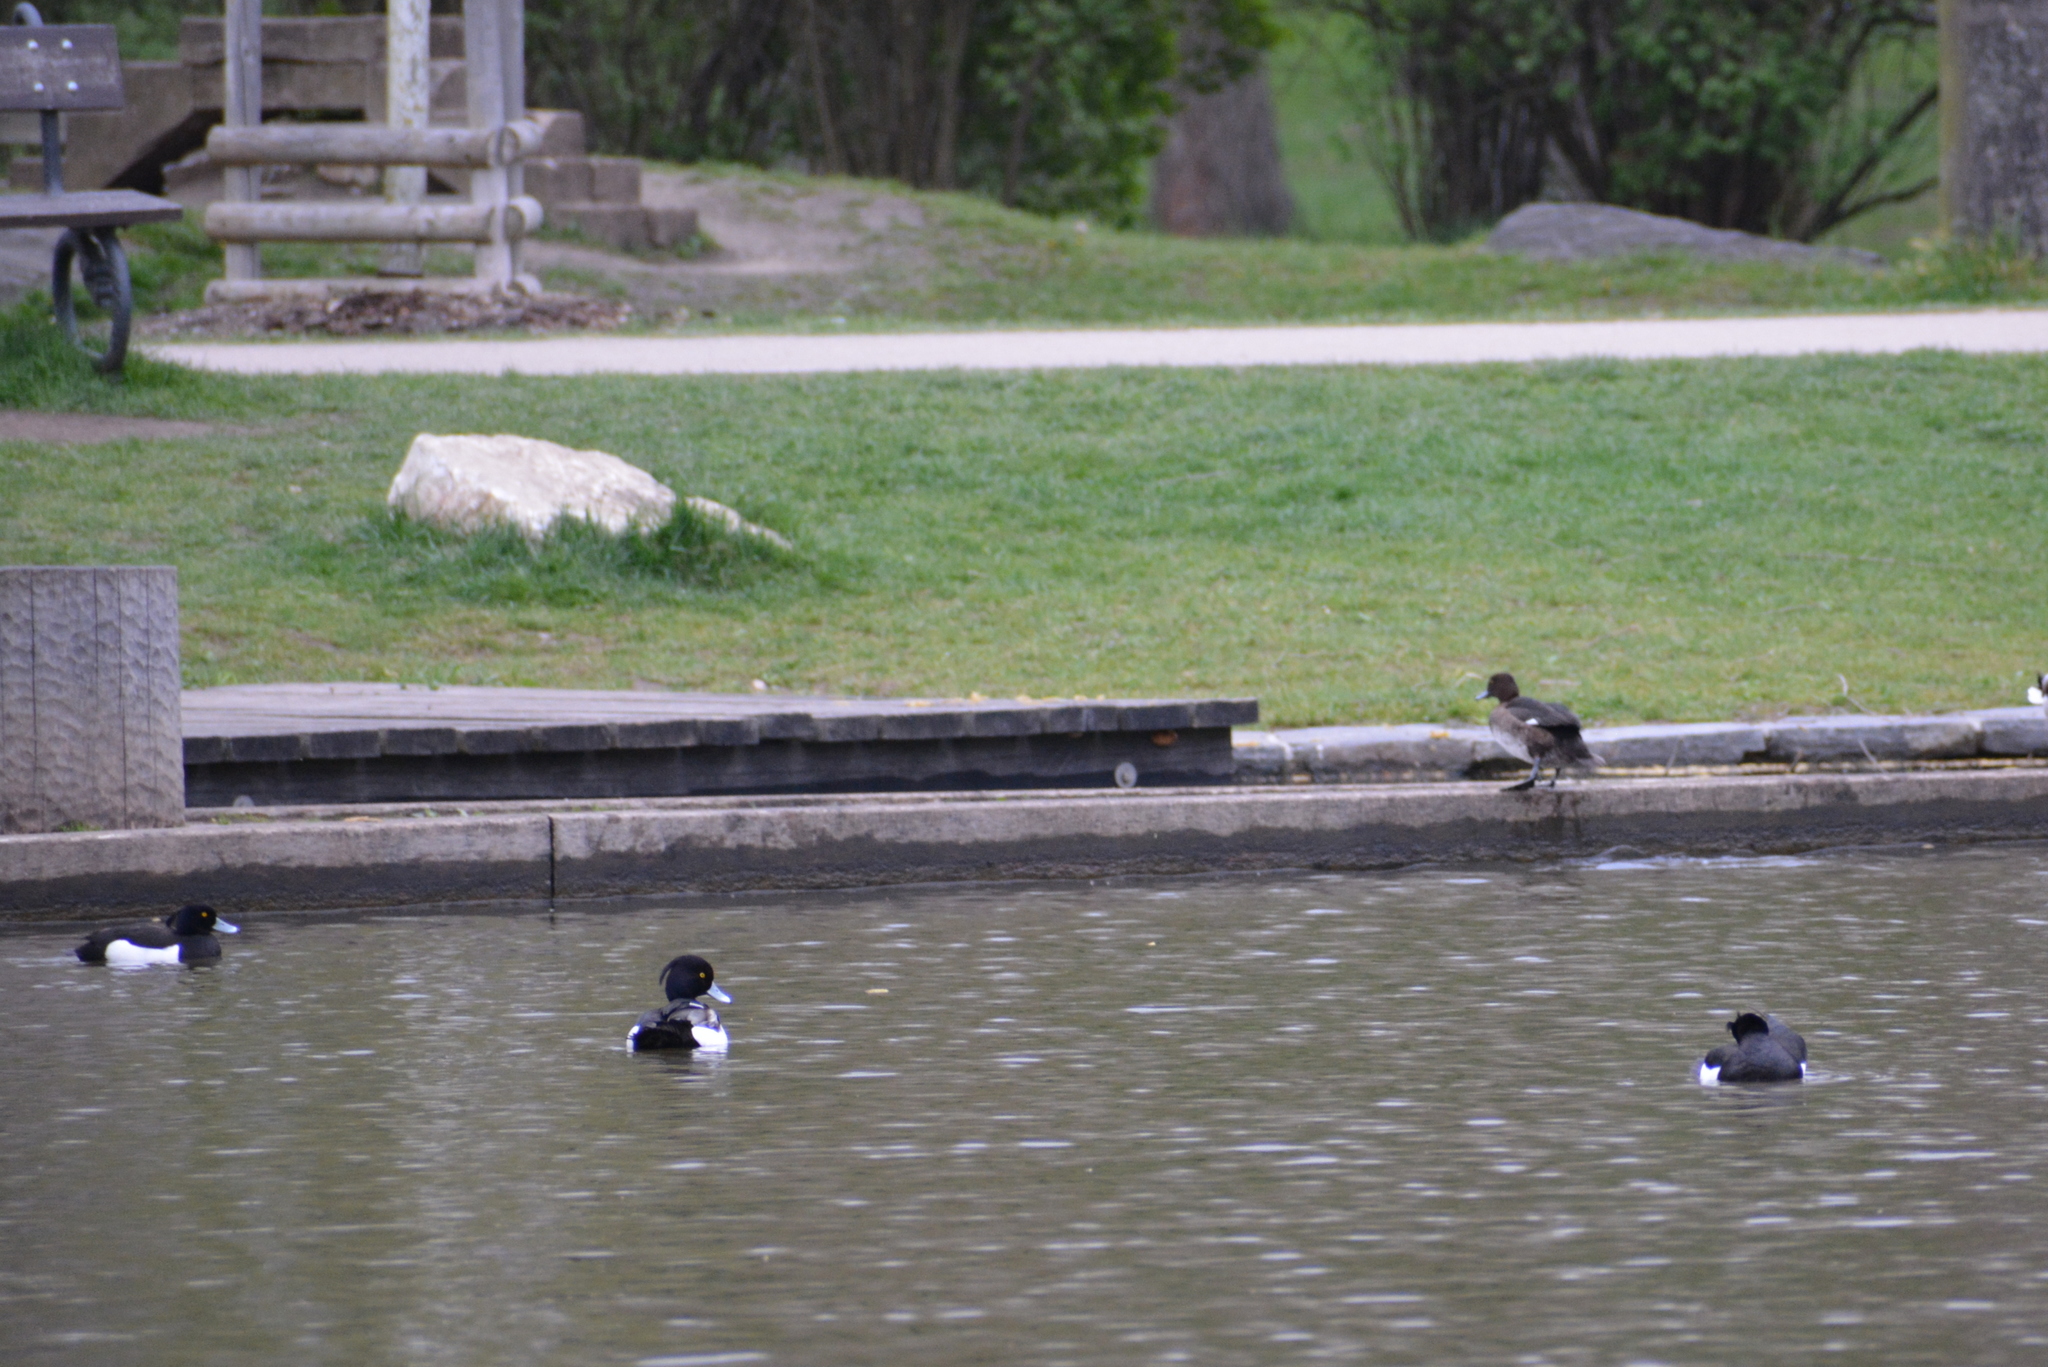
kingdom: Animalia
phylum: Chordata
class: Aves
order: Anseriformes
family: Anatidae
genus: Aythya
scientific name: Aythya fuligula
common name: Tufted duck
